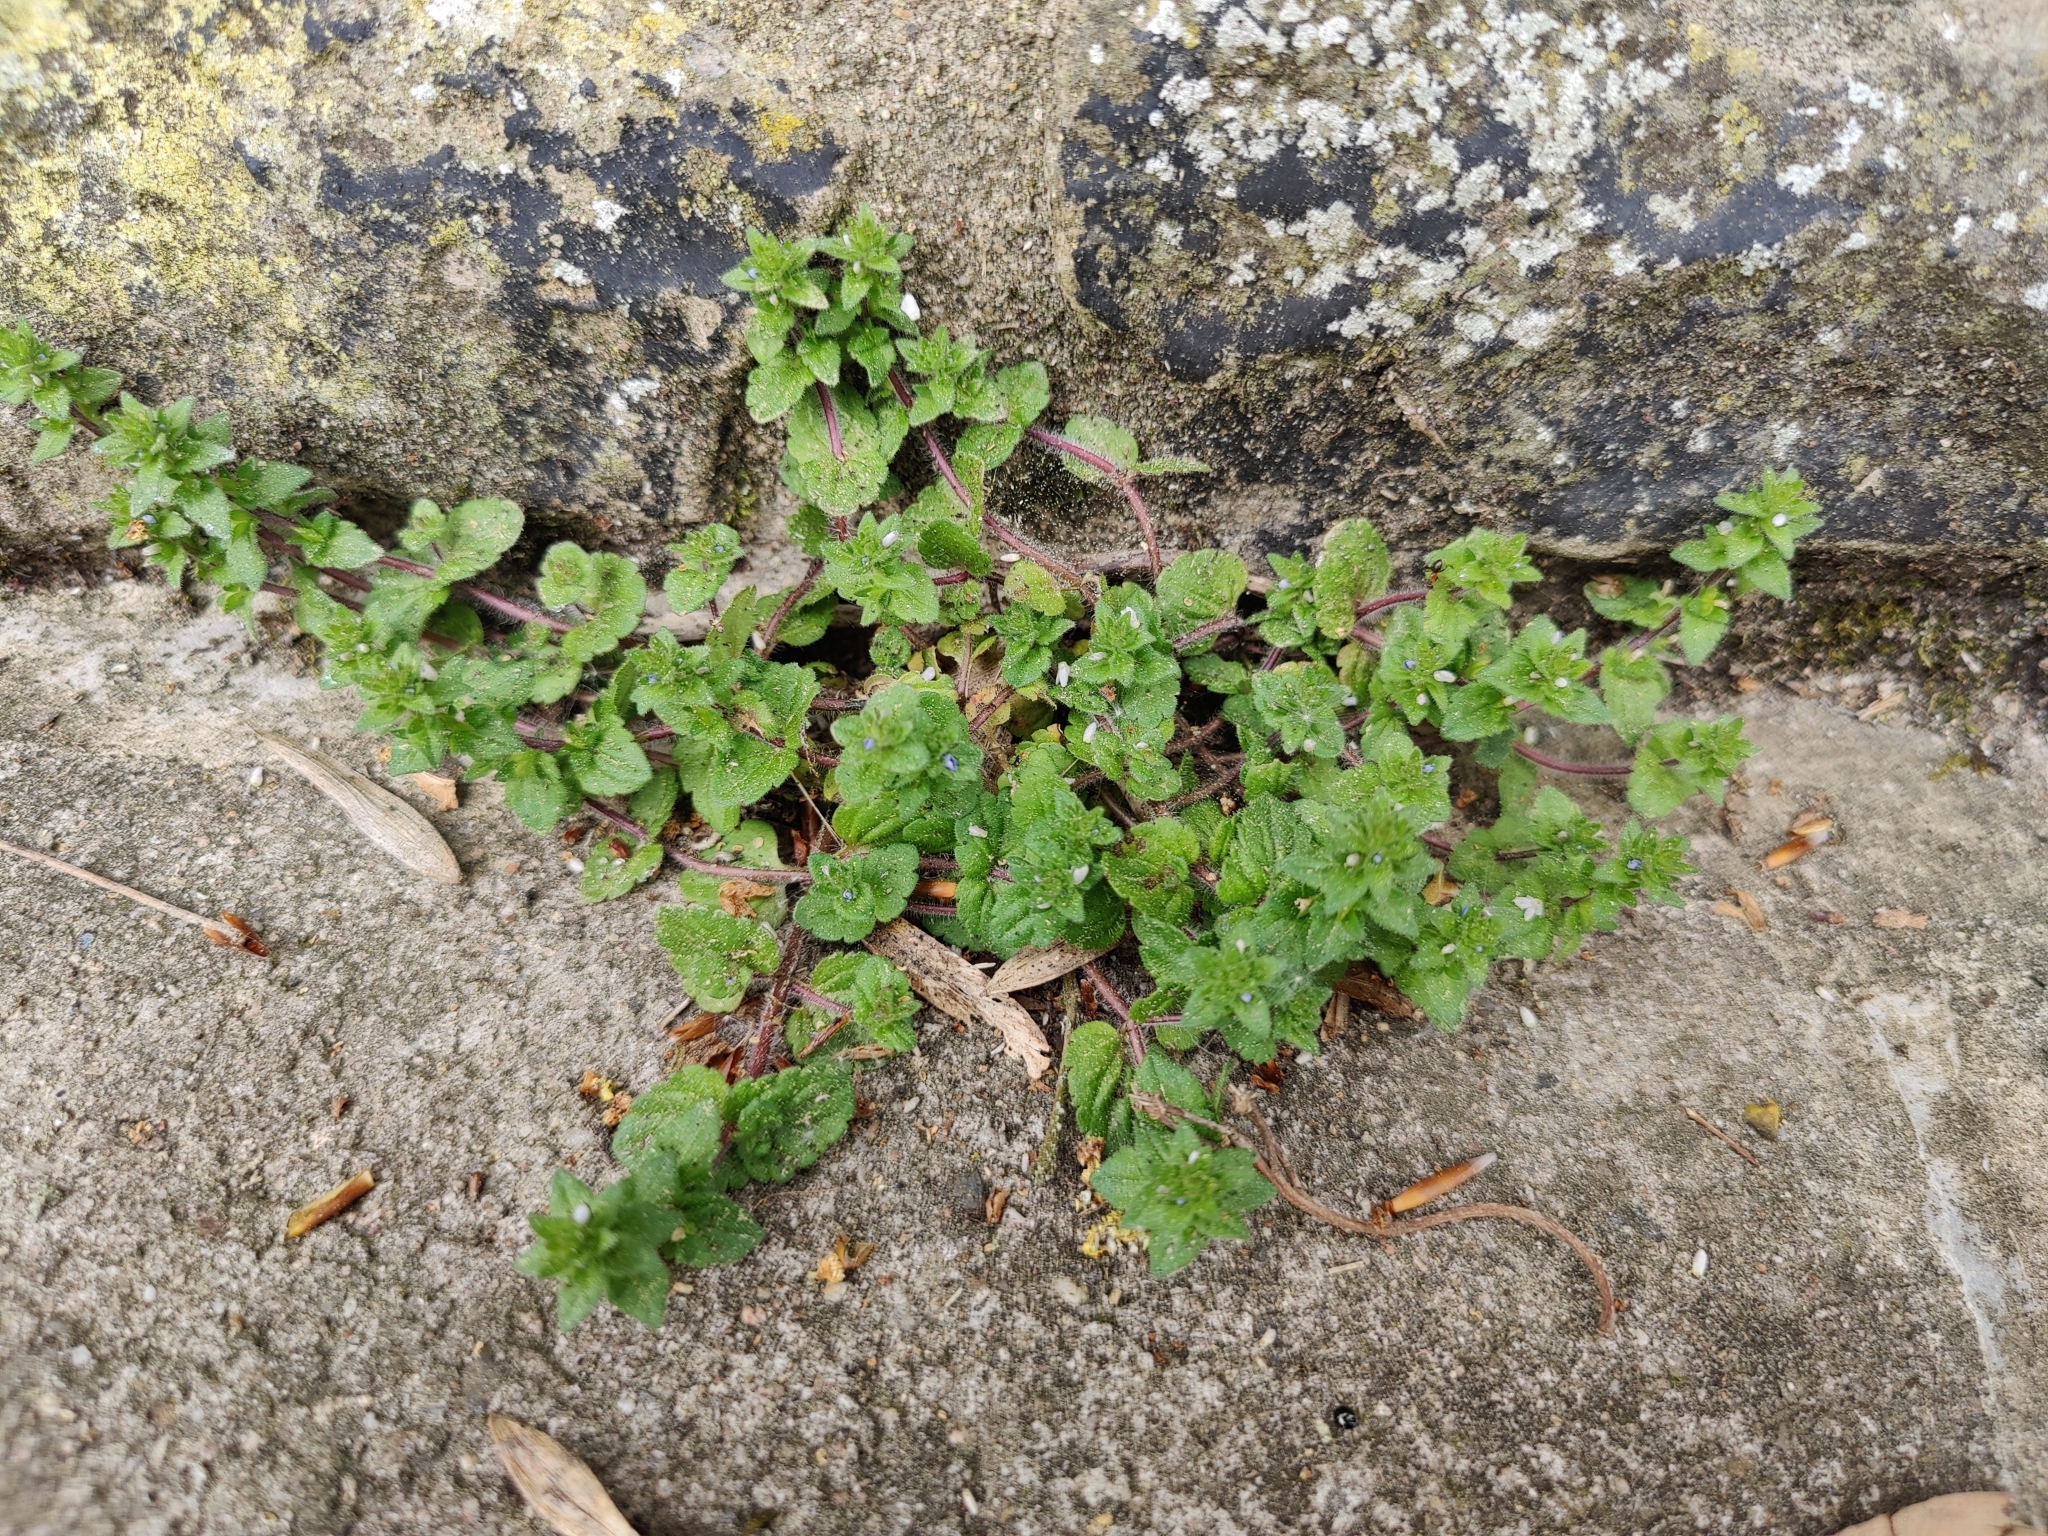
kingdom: Plantae
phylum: Tracheophyta
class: Magnoliopsida
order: Lamiales
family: Plantaginaceae
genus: Veronica
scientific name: Veronica arvensis
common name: Corn speedwell
